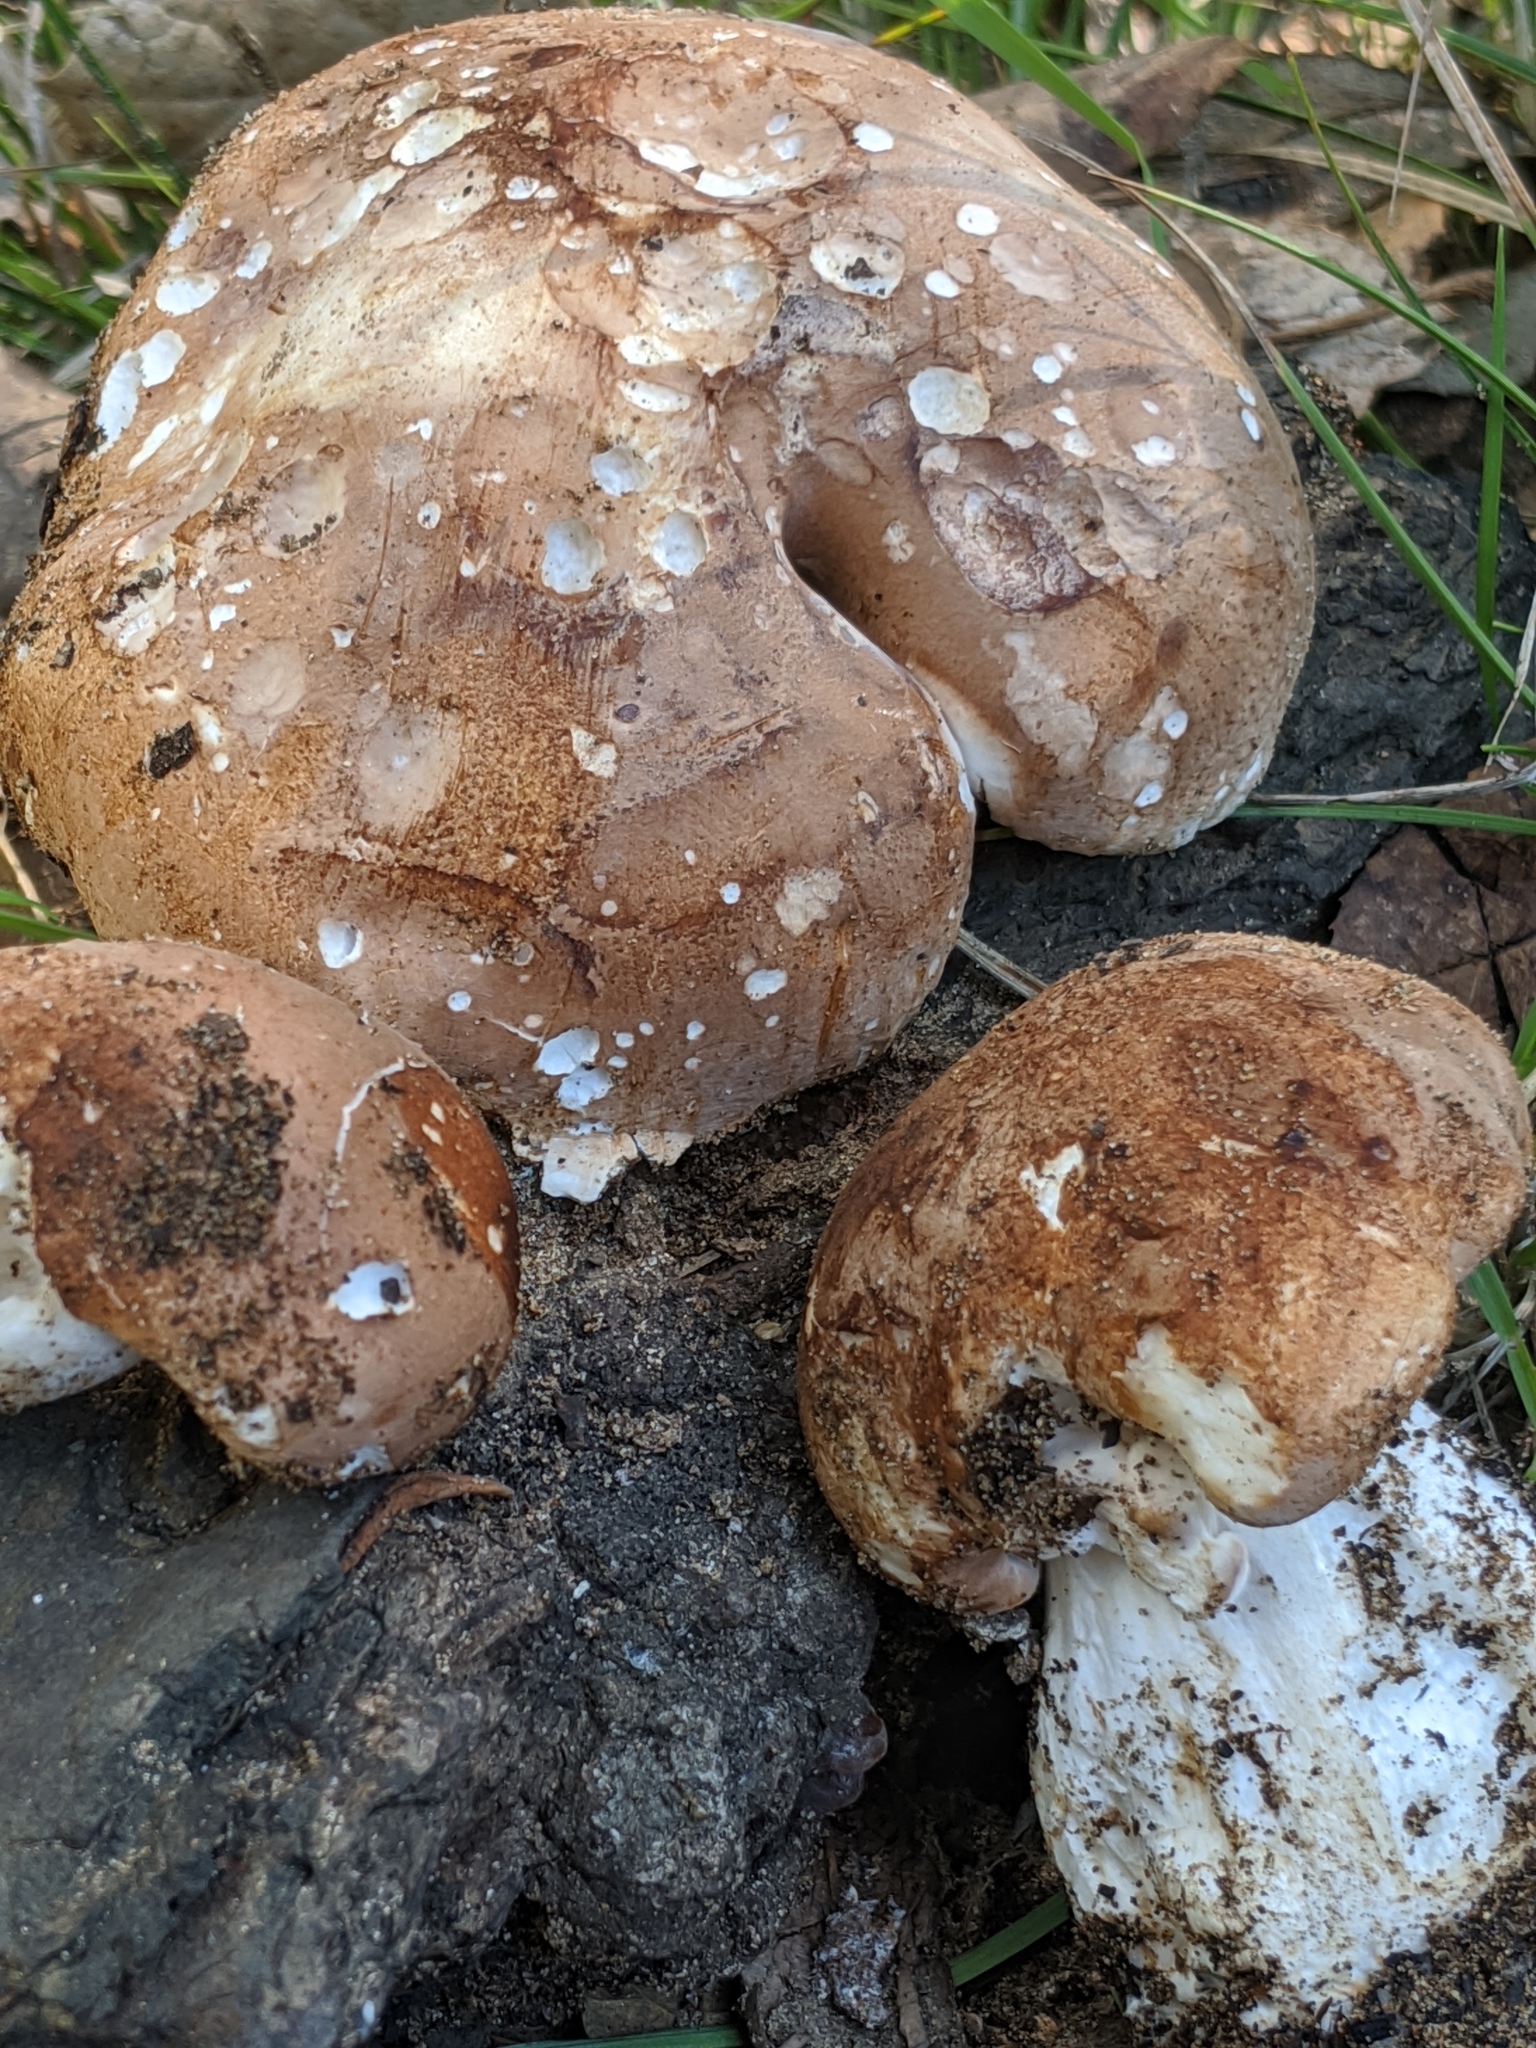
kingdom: Fungi
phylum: Basidiomycota
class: Agaricomycetes
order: Agaricales
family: Tricholomataceae
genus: Leucopaxillus
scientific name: Leucopaxillus gentianeus
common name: Bitter funnel
